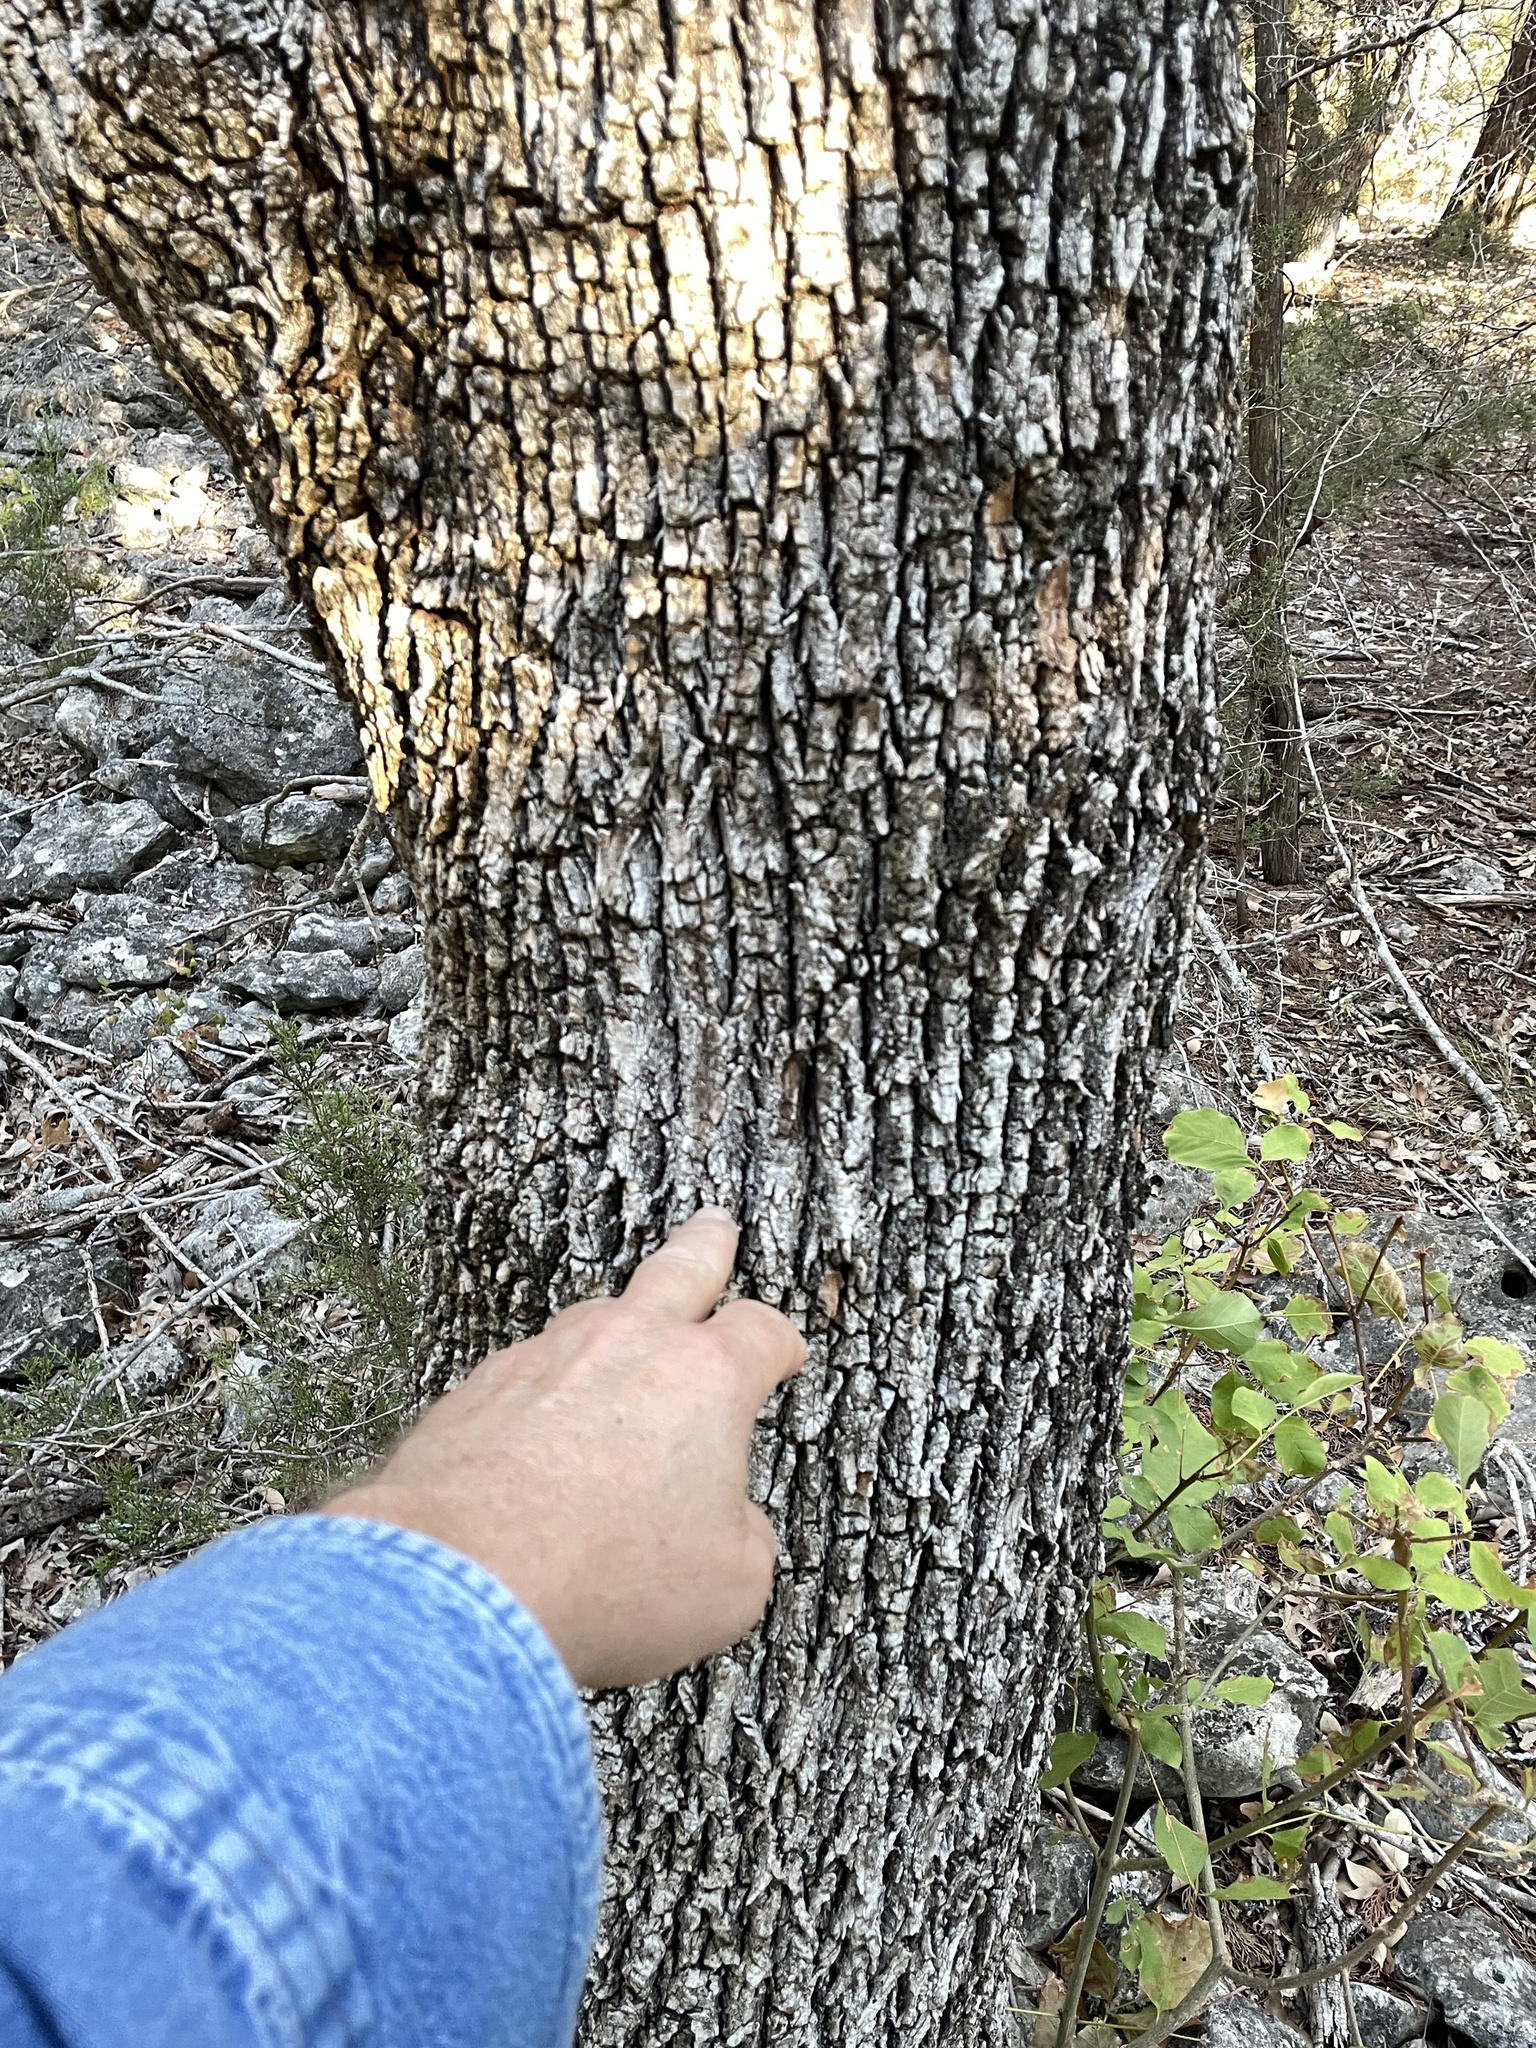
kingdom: Plantae
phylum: Tracheophyta
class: Magnoliopsida
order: Lamiales
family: Oleaceae
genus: Fraxinus
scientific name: Fraxinus albicans
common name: Texas ash
